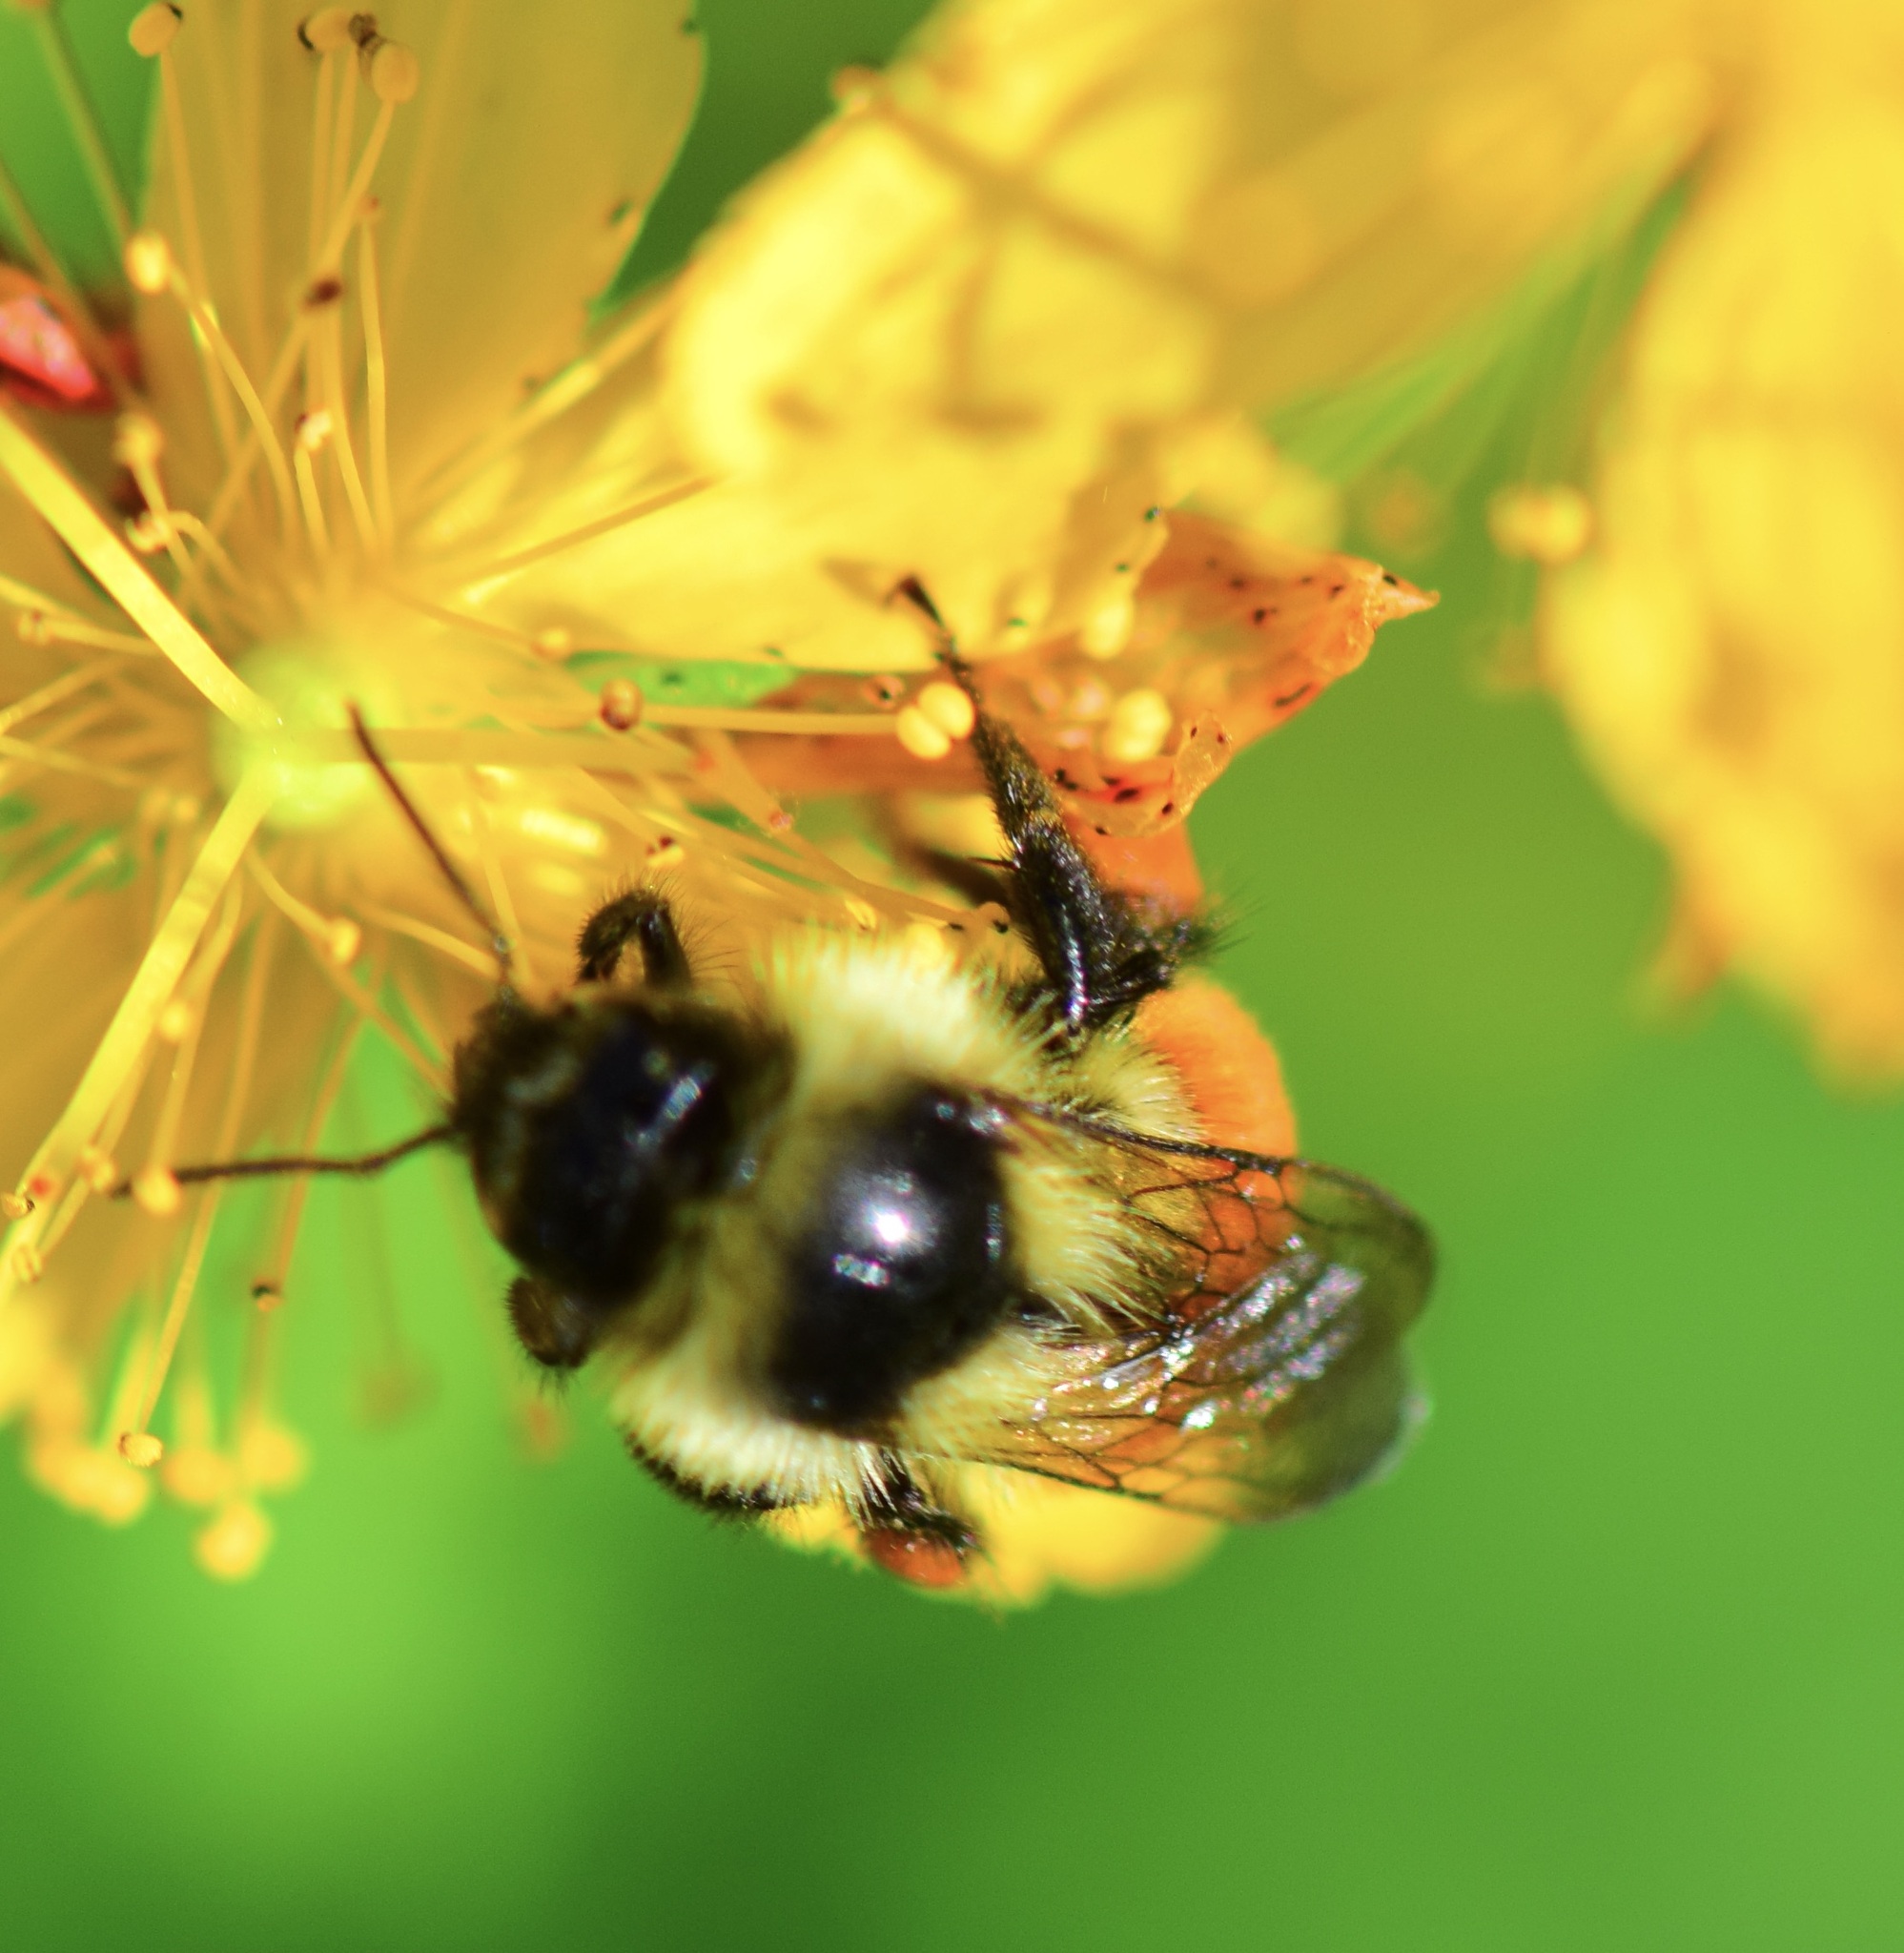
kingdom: Animalia
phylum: Arthropoda
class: Insecta
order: Hymenoptera
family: Apidae
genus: Bombus
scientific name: Bombus ternarius
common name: Tri-colored bumble bee
